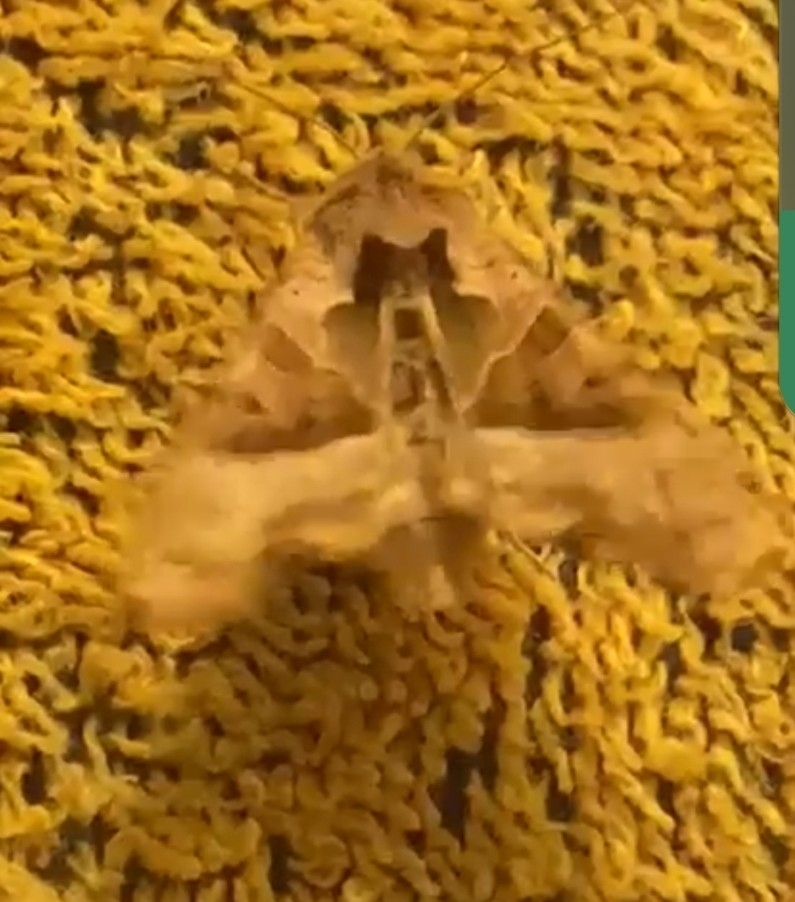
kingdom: Animalia
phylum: Arthropoda
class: Insecta
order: Lepidoptera
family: Noctuidae
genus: Phlogophora
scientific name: Phlogophora meticulosa
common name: Angle shades
